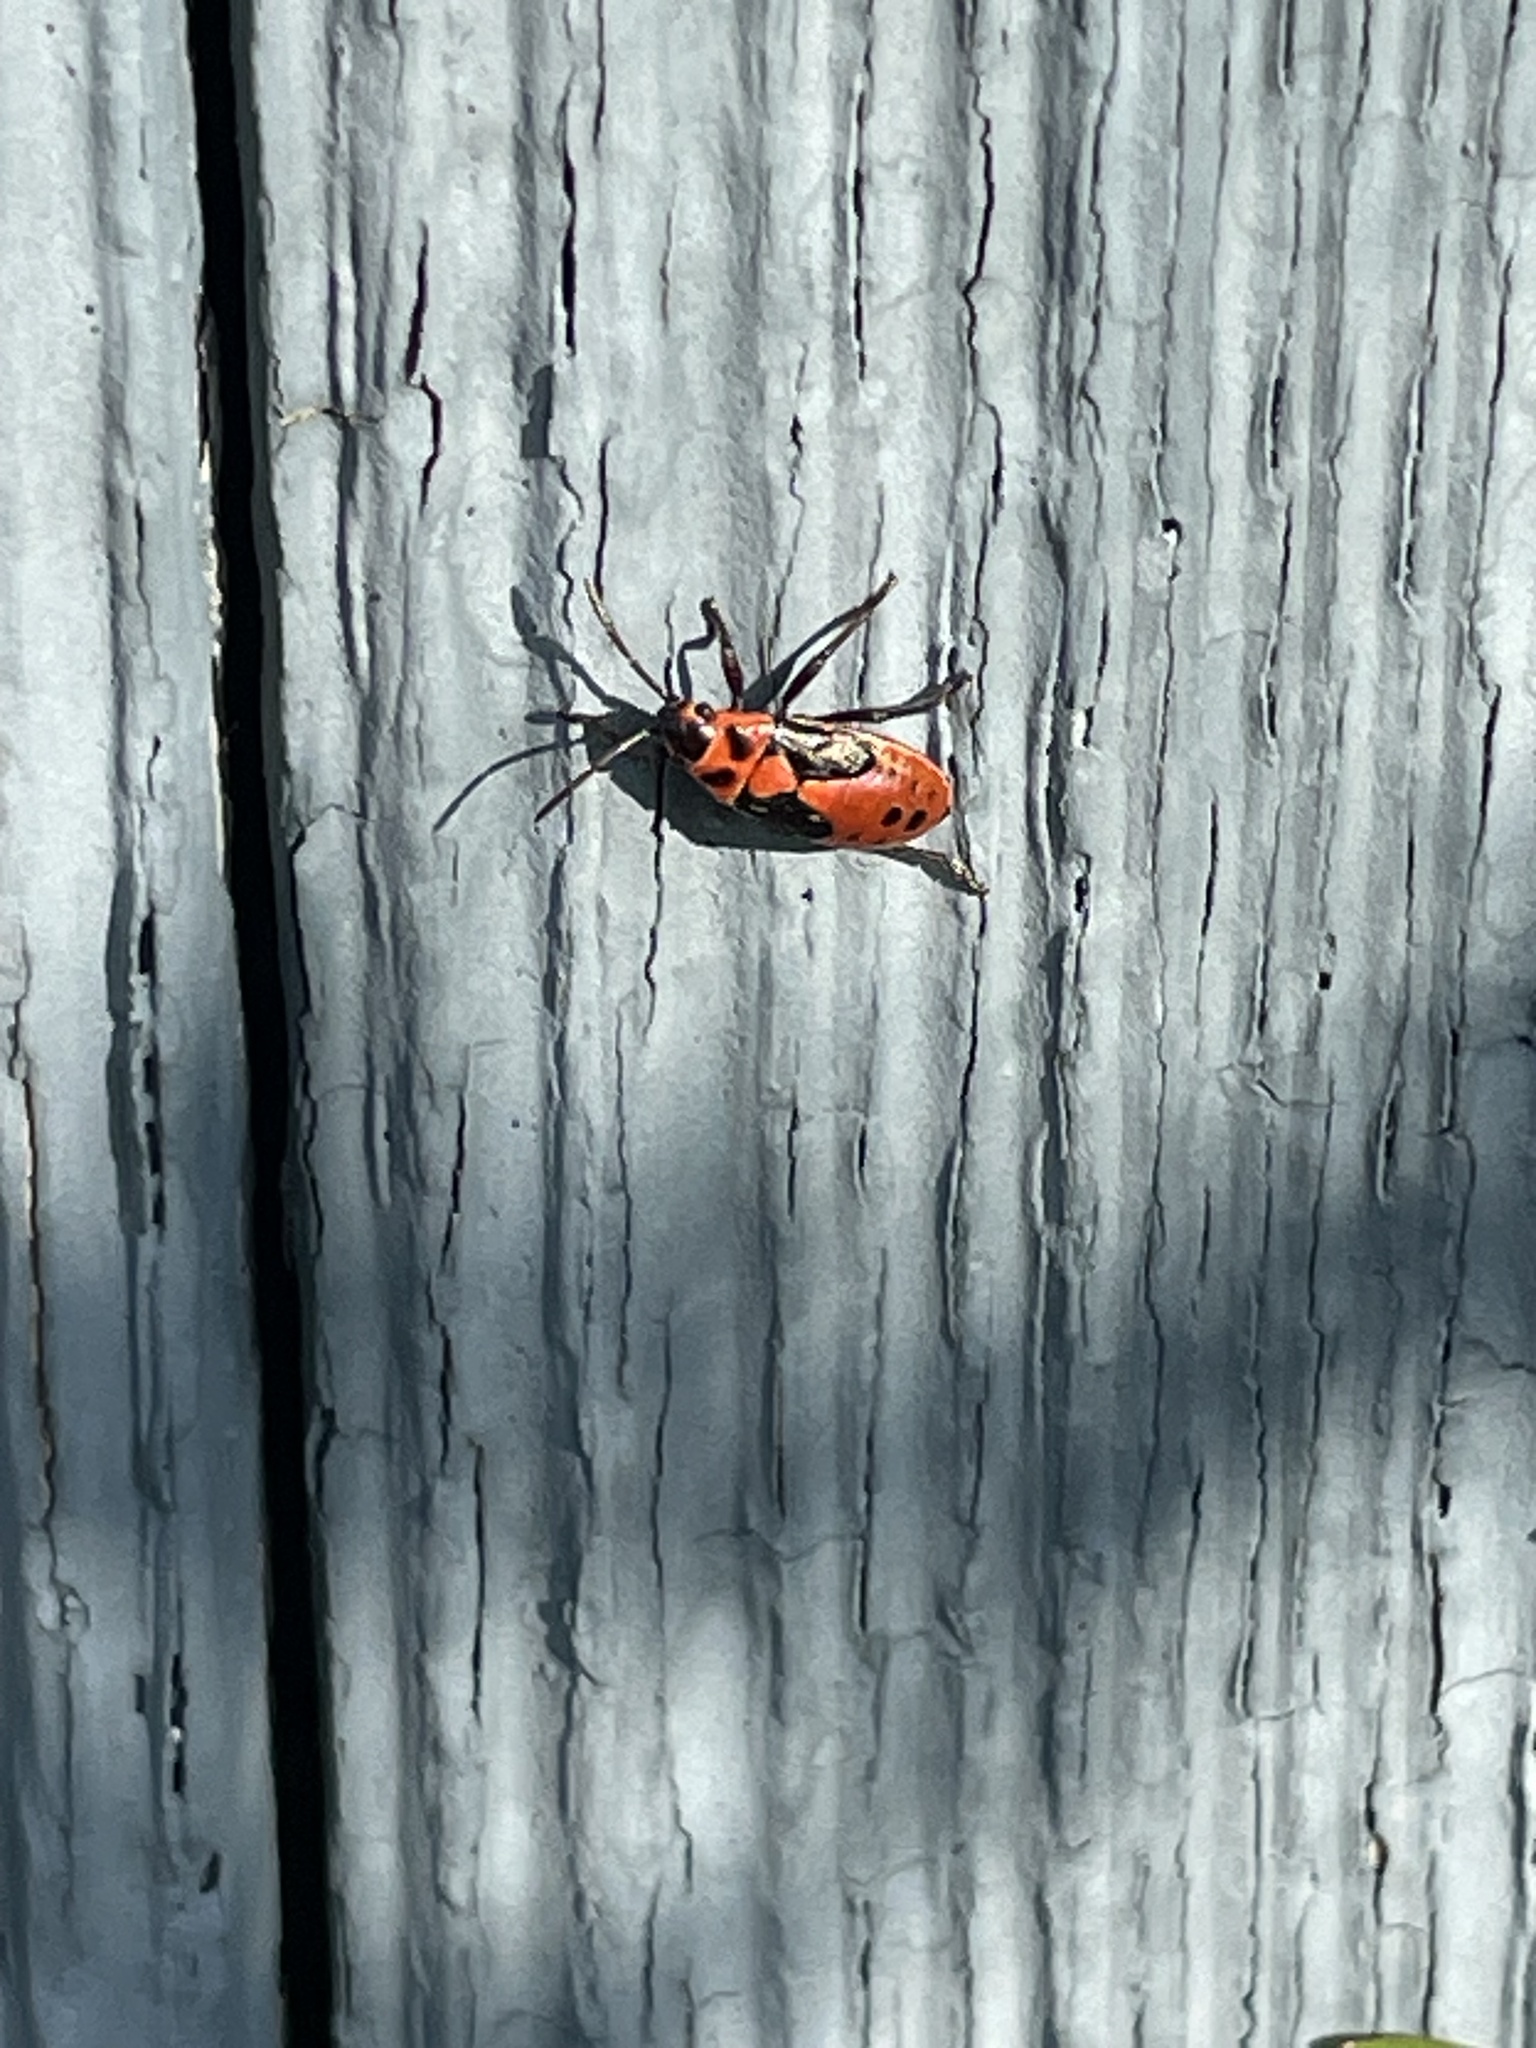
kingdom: Animalia
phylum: Arthropoda
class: Insecta
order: Hemiptera
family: Lygaeidae
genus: Lygaeus
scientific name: Lygaeus kalmii
